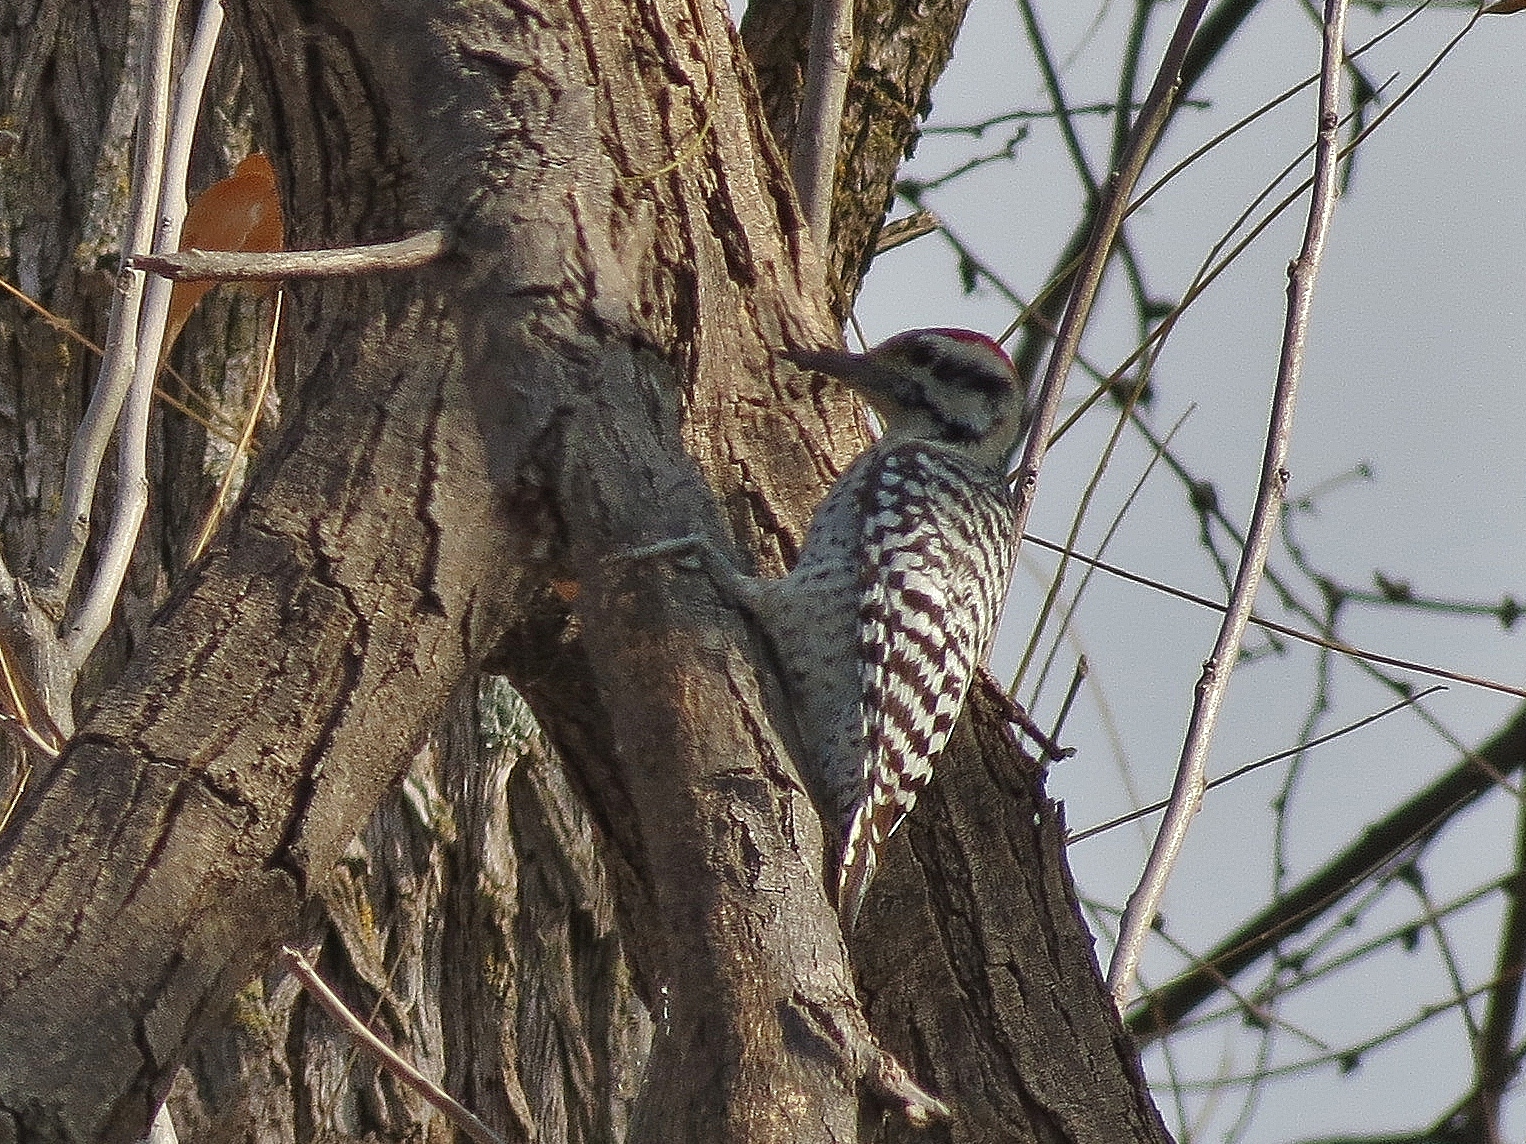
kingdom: Animalia
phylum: Chordata
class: Aves
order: Piciformes
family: Picidae
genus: Dryobates
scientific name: Dryobates scalaris
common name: Ladder-backed woodpecker
